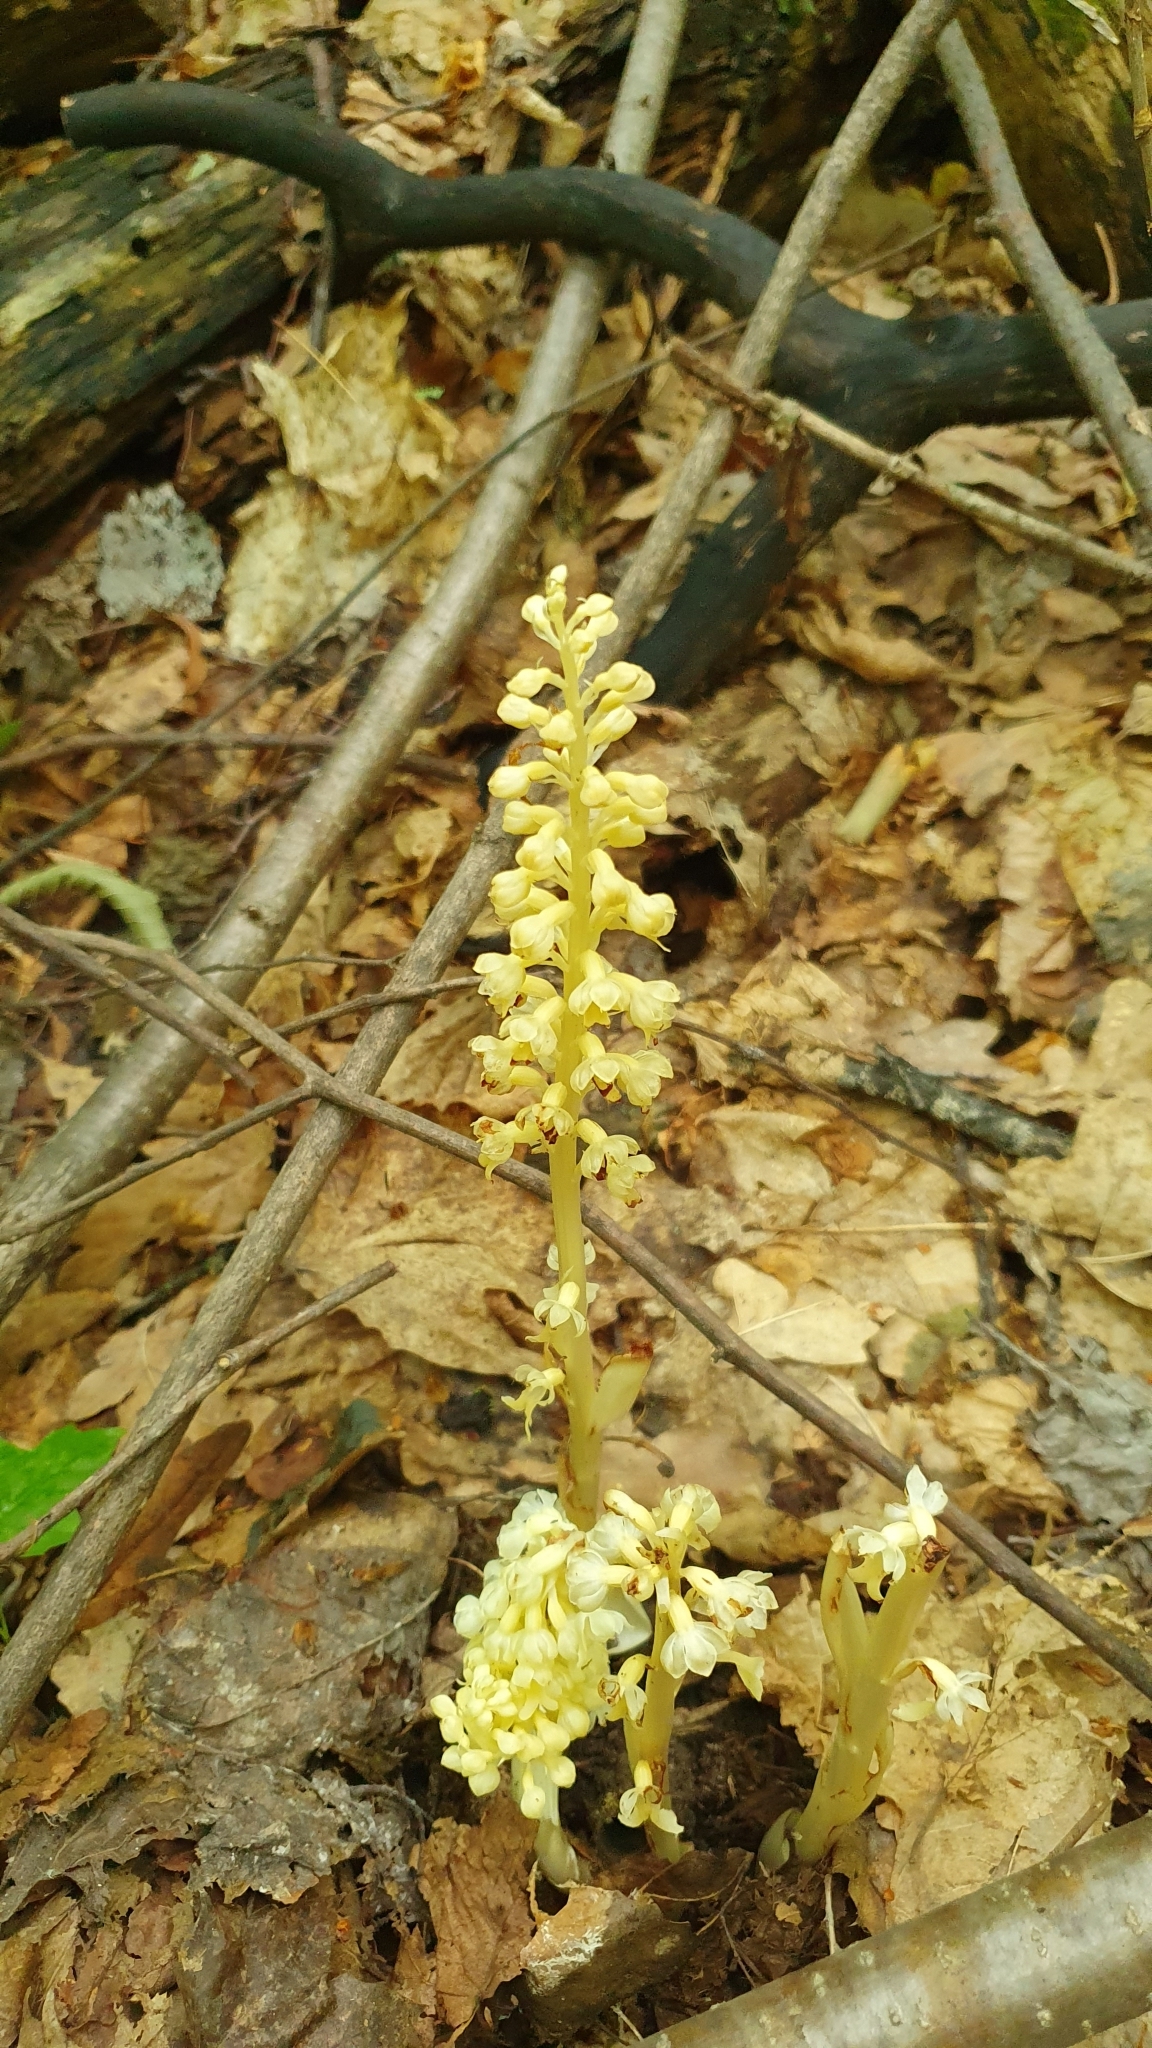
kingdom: Plantae
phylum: Tracheophyta
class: Liliopsida
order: Asparagales
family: Orchidaceae
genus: Neottia
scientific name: Neottia nidus-avis
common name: Bird's-nest orchid
